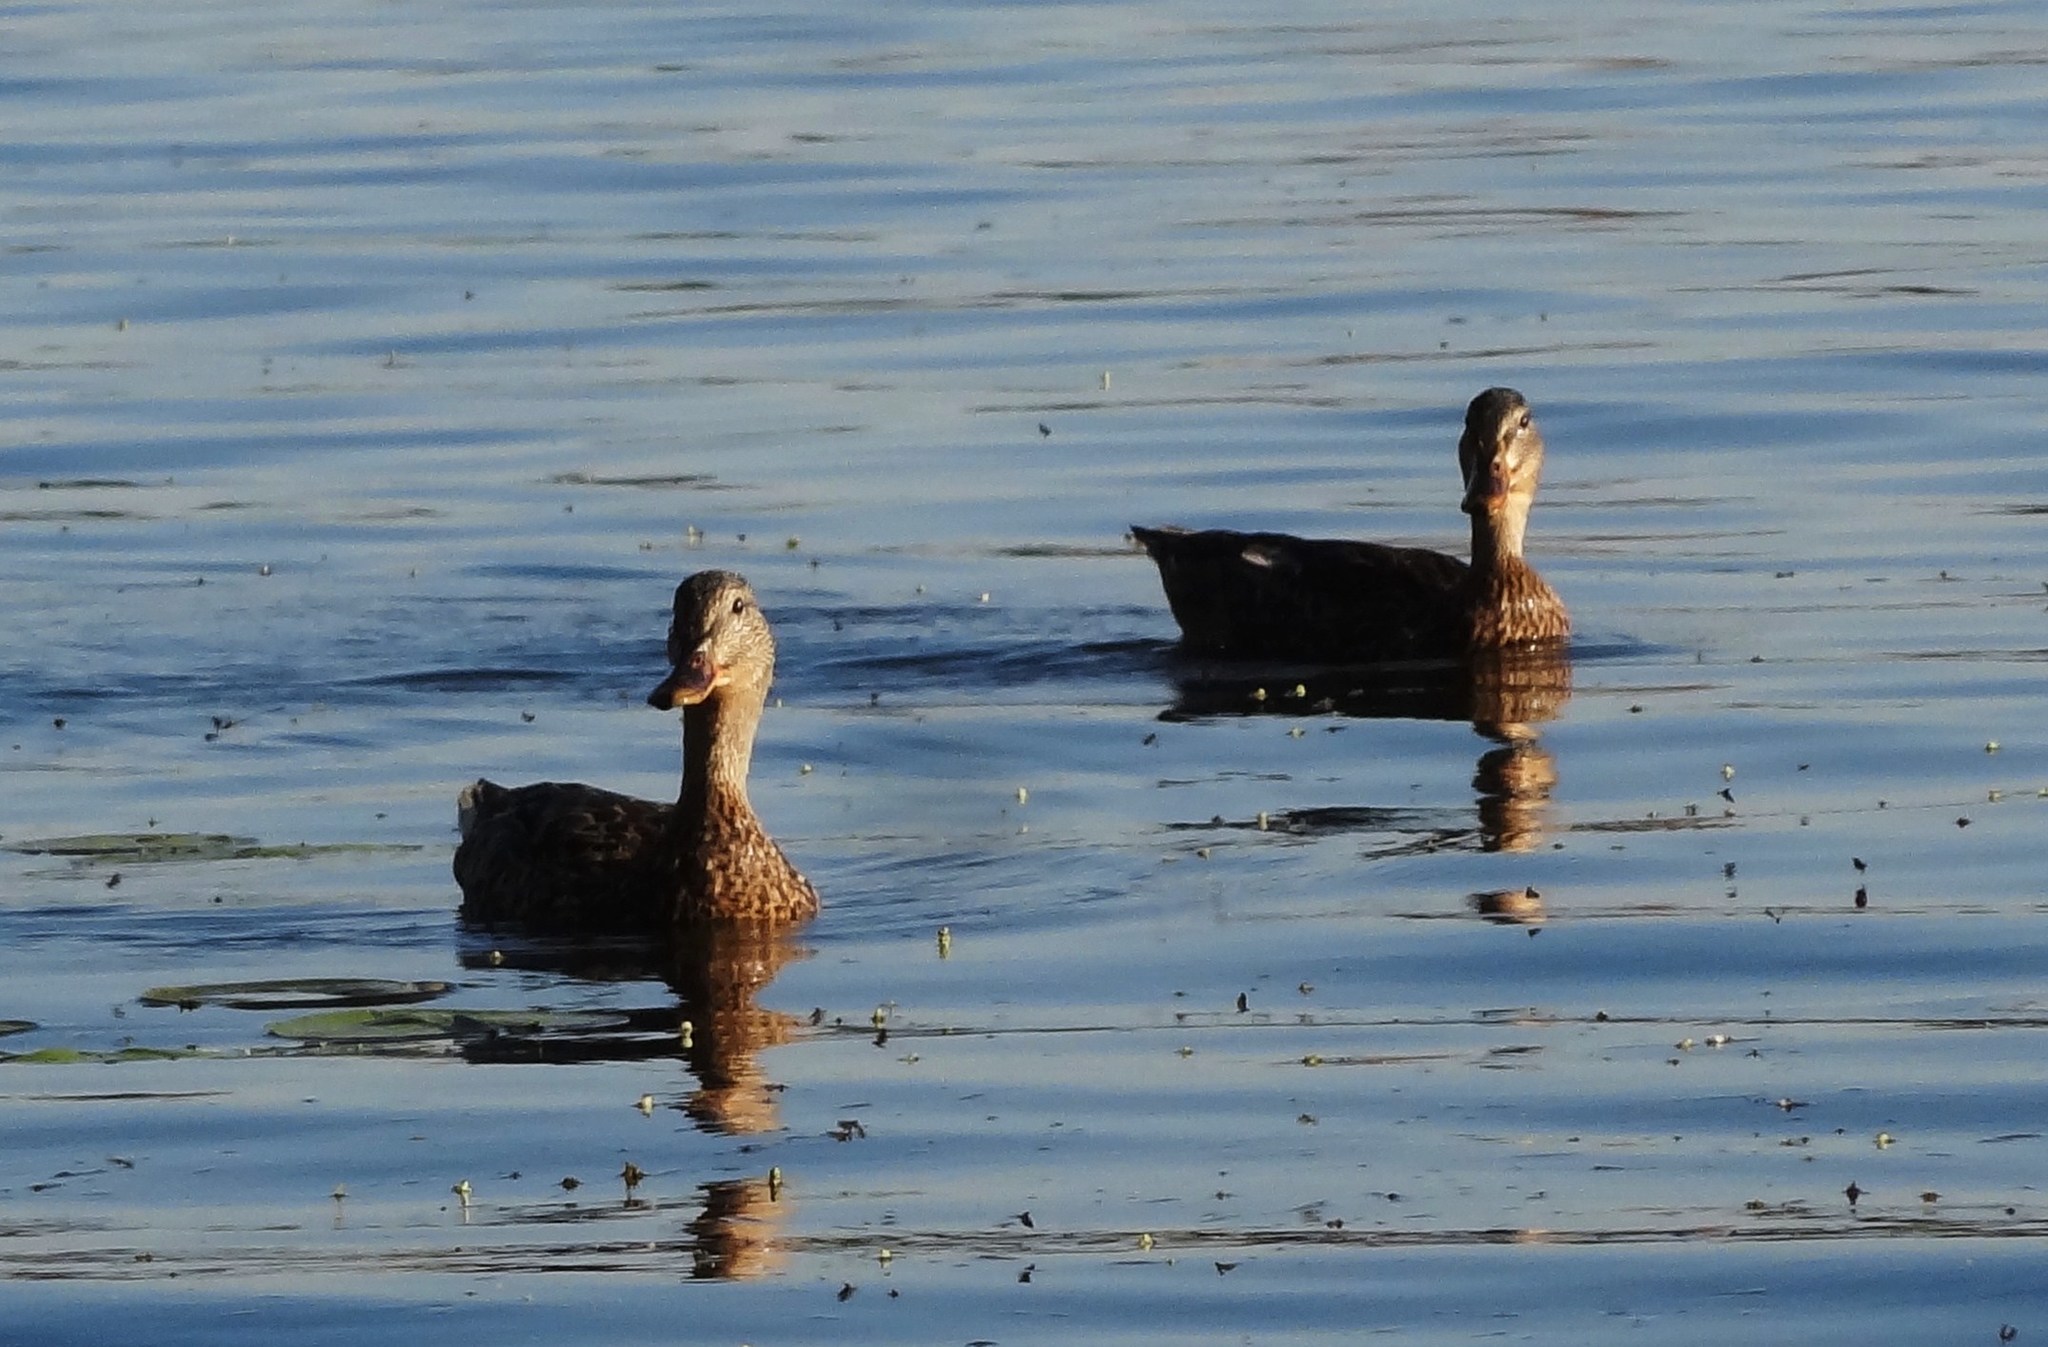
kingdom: Animalia
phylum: Chordata
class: Aves
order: Anseriformes
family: Anatidae
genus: Anas
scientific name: Anas platyrhynchos
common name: Mallard
